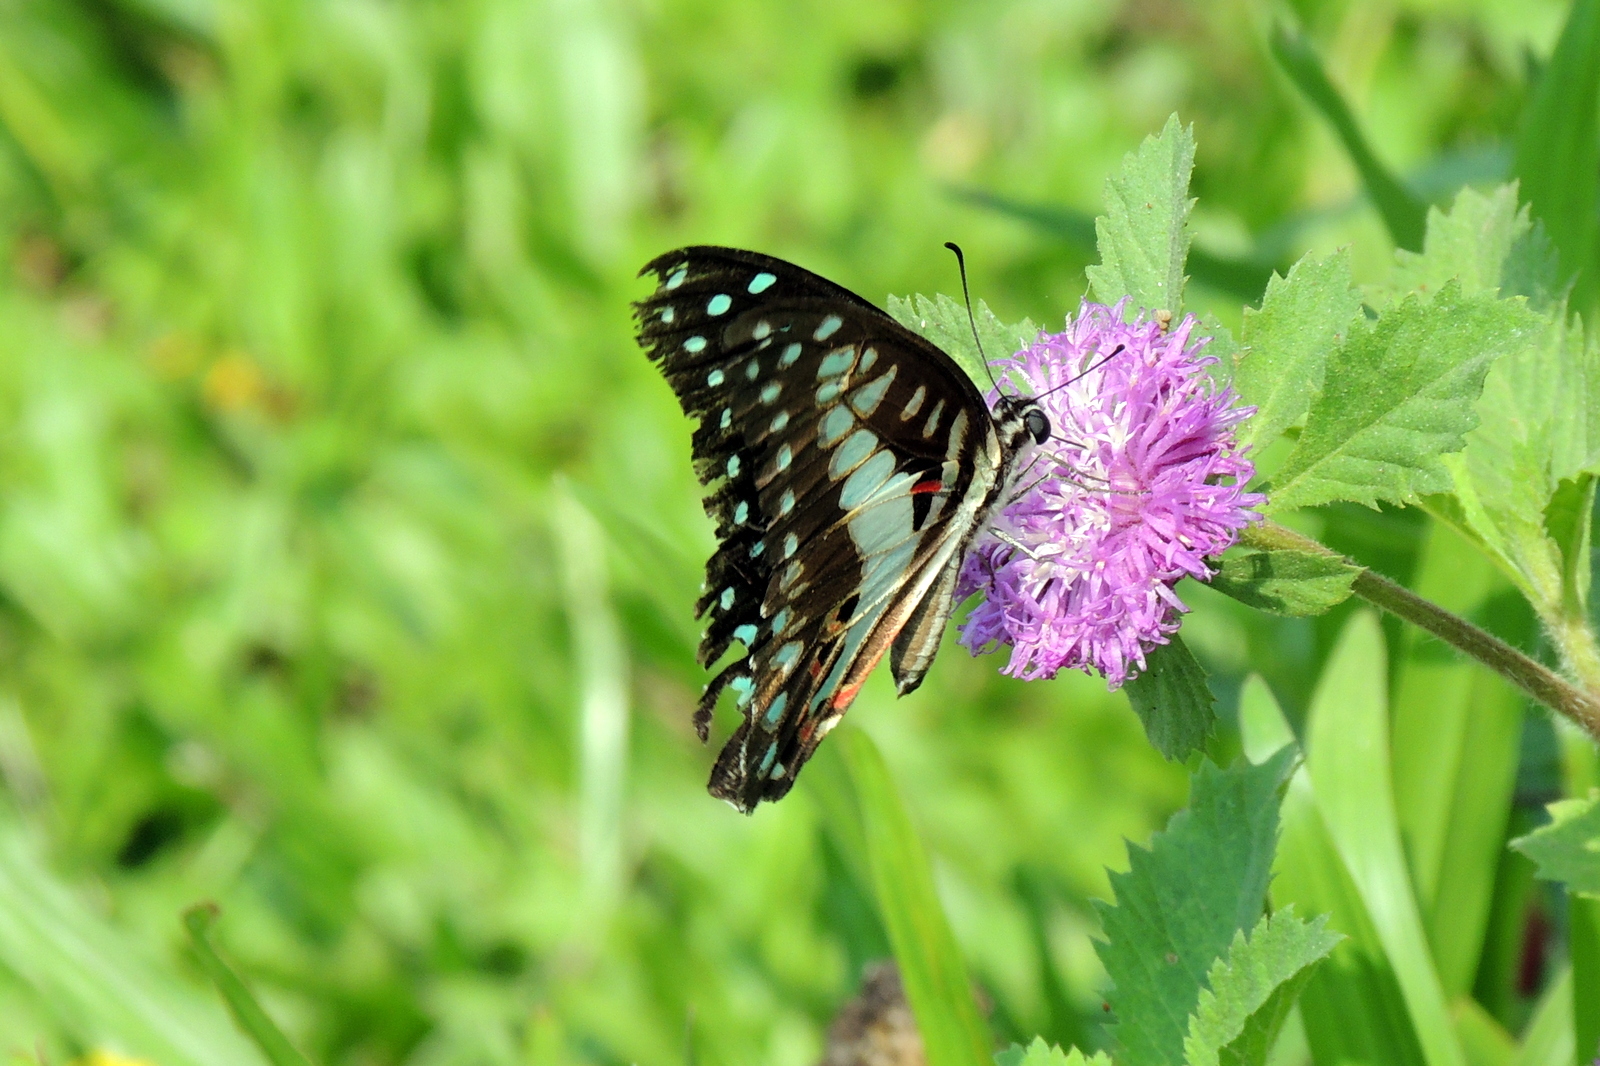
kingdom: Animalia
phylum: Arthropoda
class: Insecta
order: Lepidoptera
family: Papilionidae
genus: Graphium
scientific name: Graphium doson
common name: Common jay
